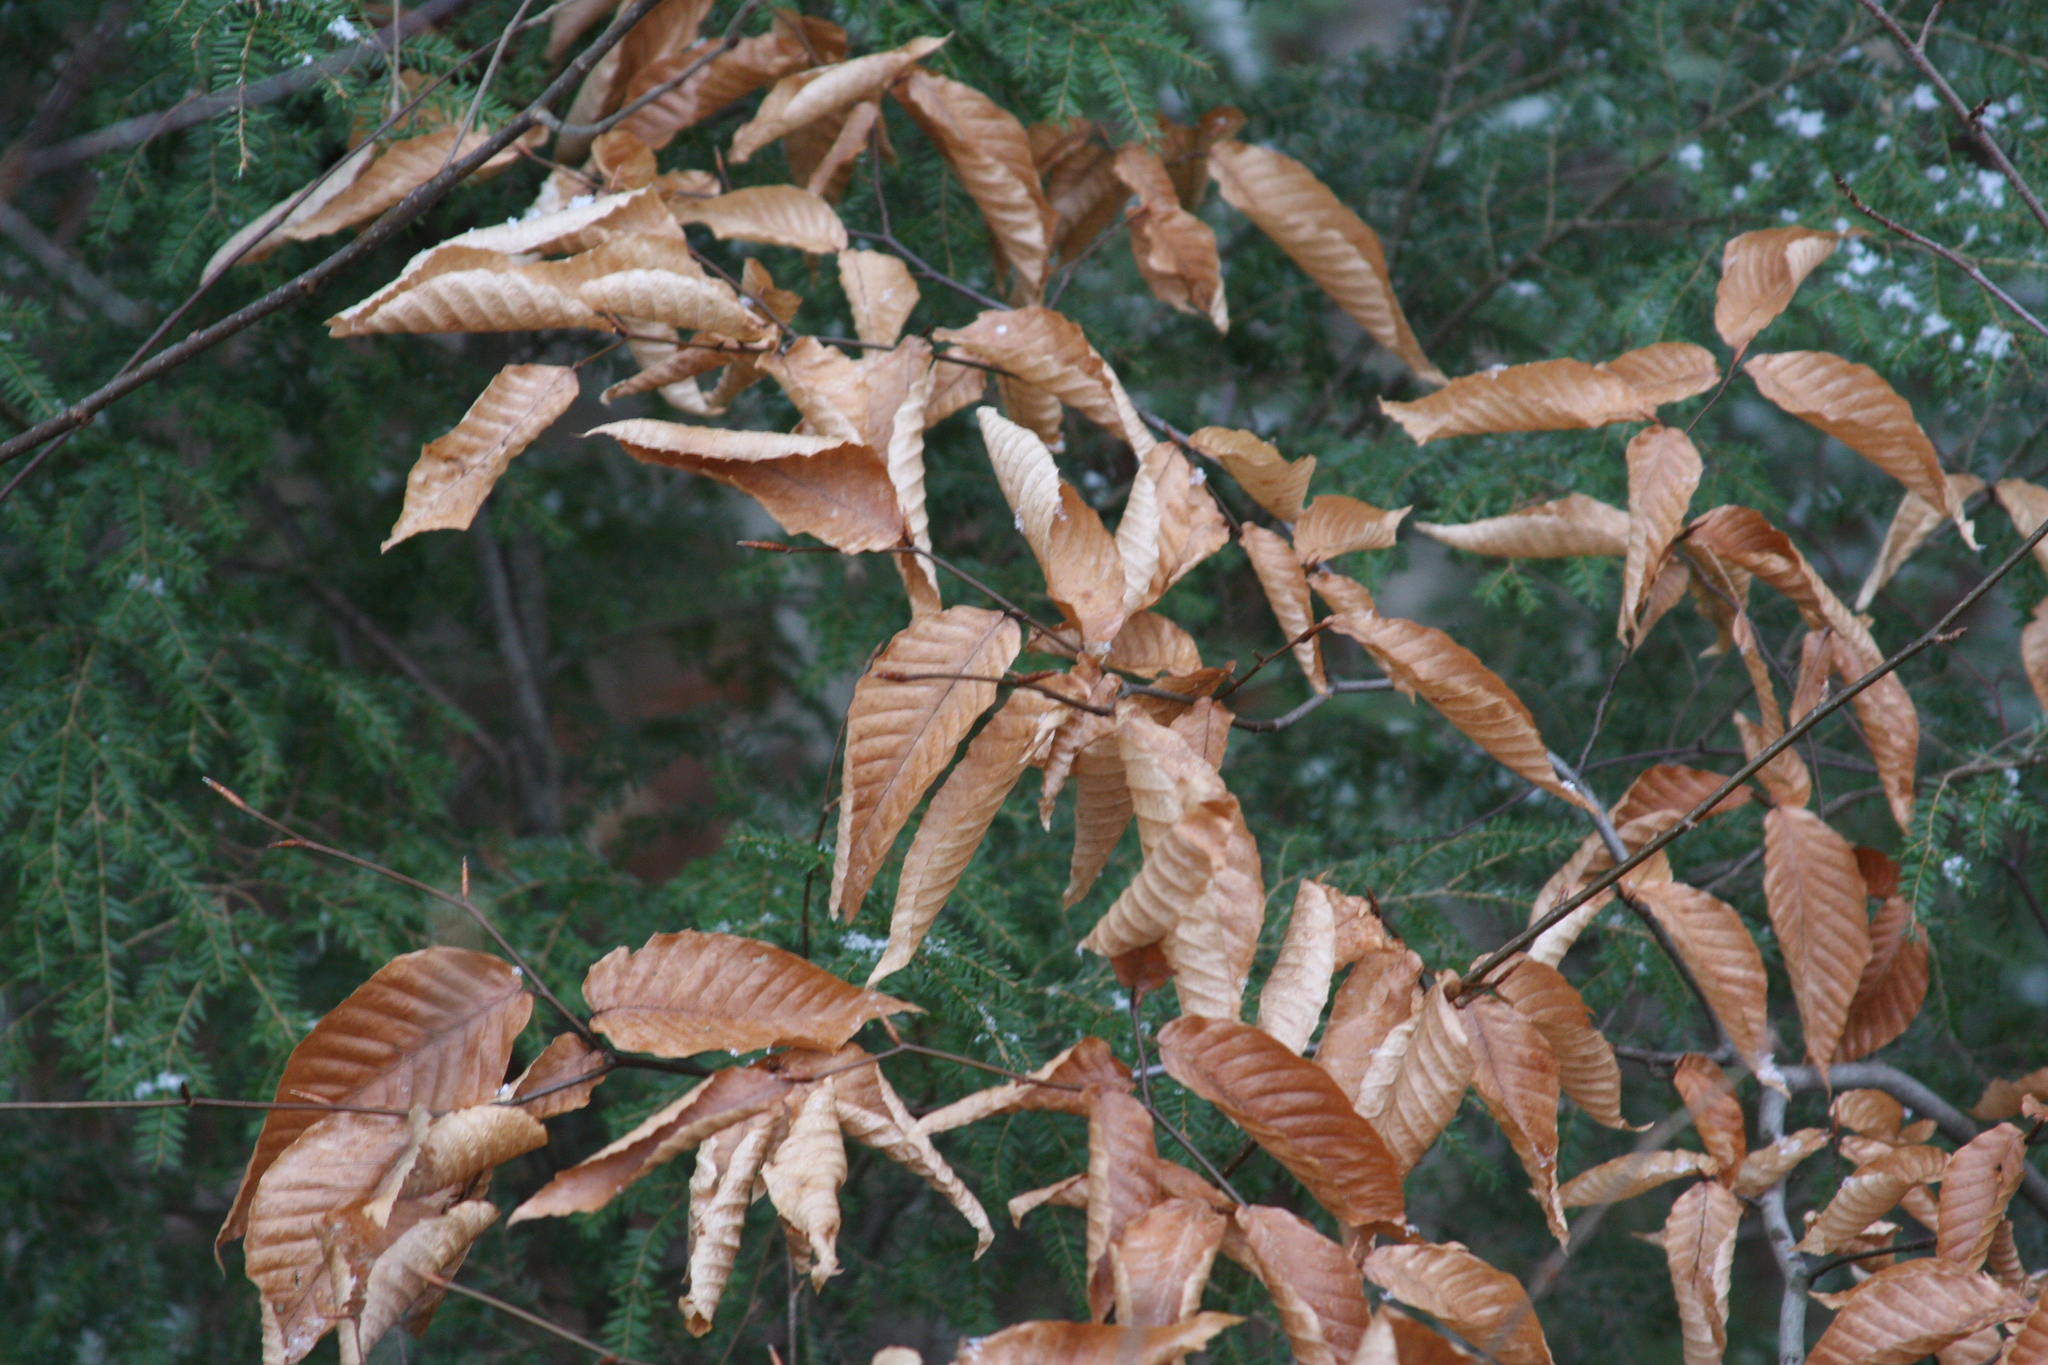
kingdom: Plantae
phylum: Tracheophyta
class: Magnoliopsida
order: Fagales
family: Fagaceae
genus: Fagus
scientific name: Fagus grandifolia
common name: American beech
